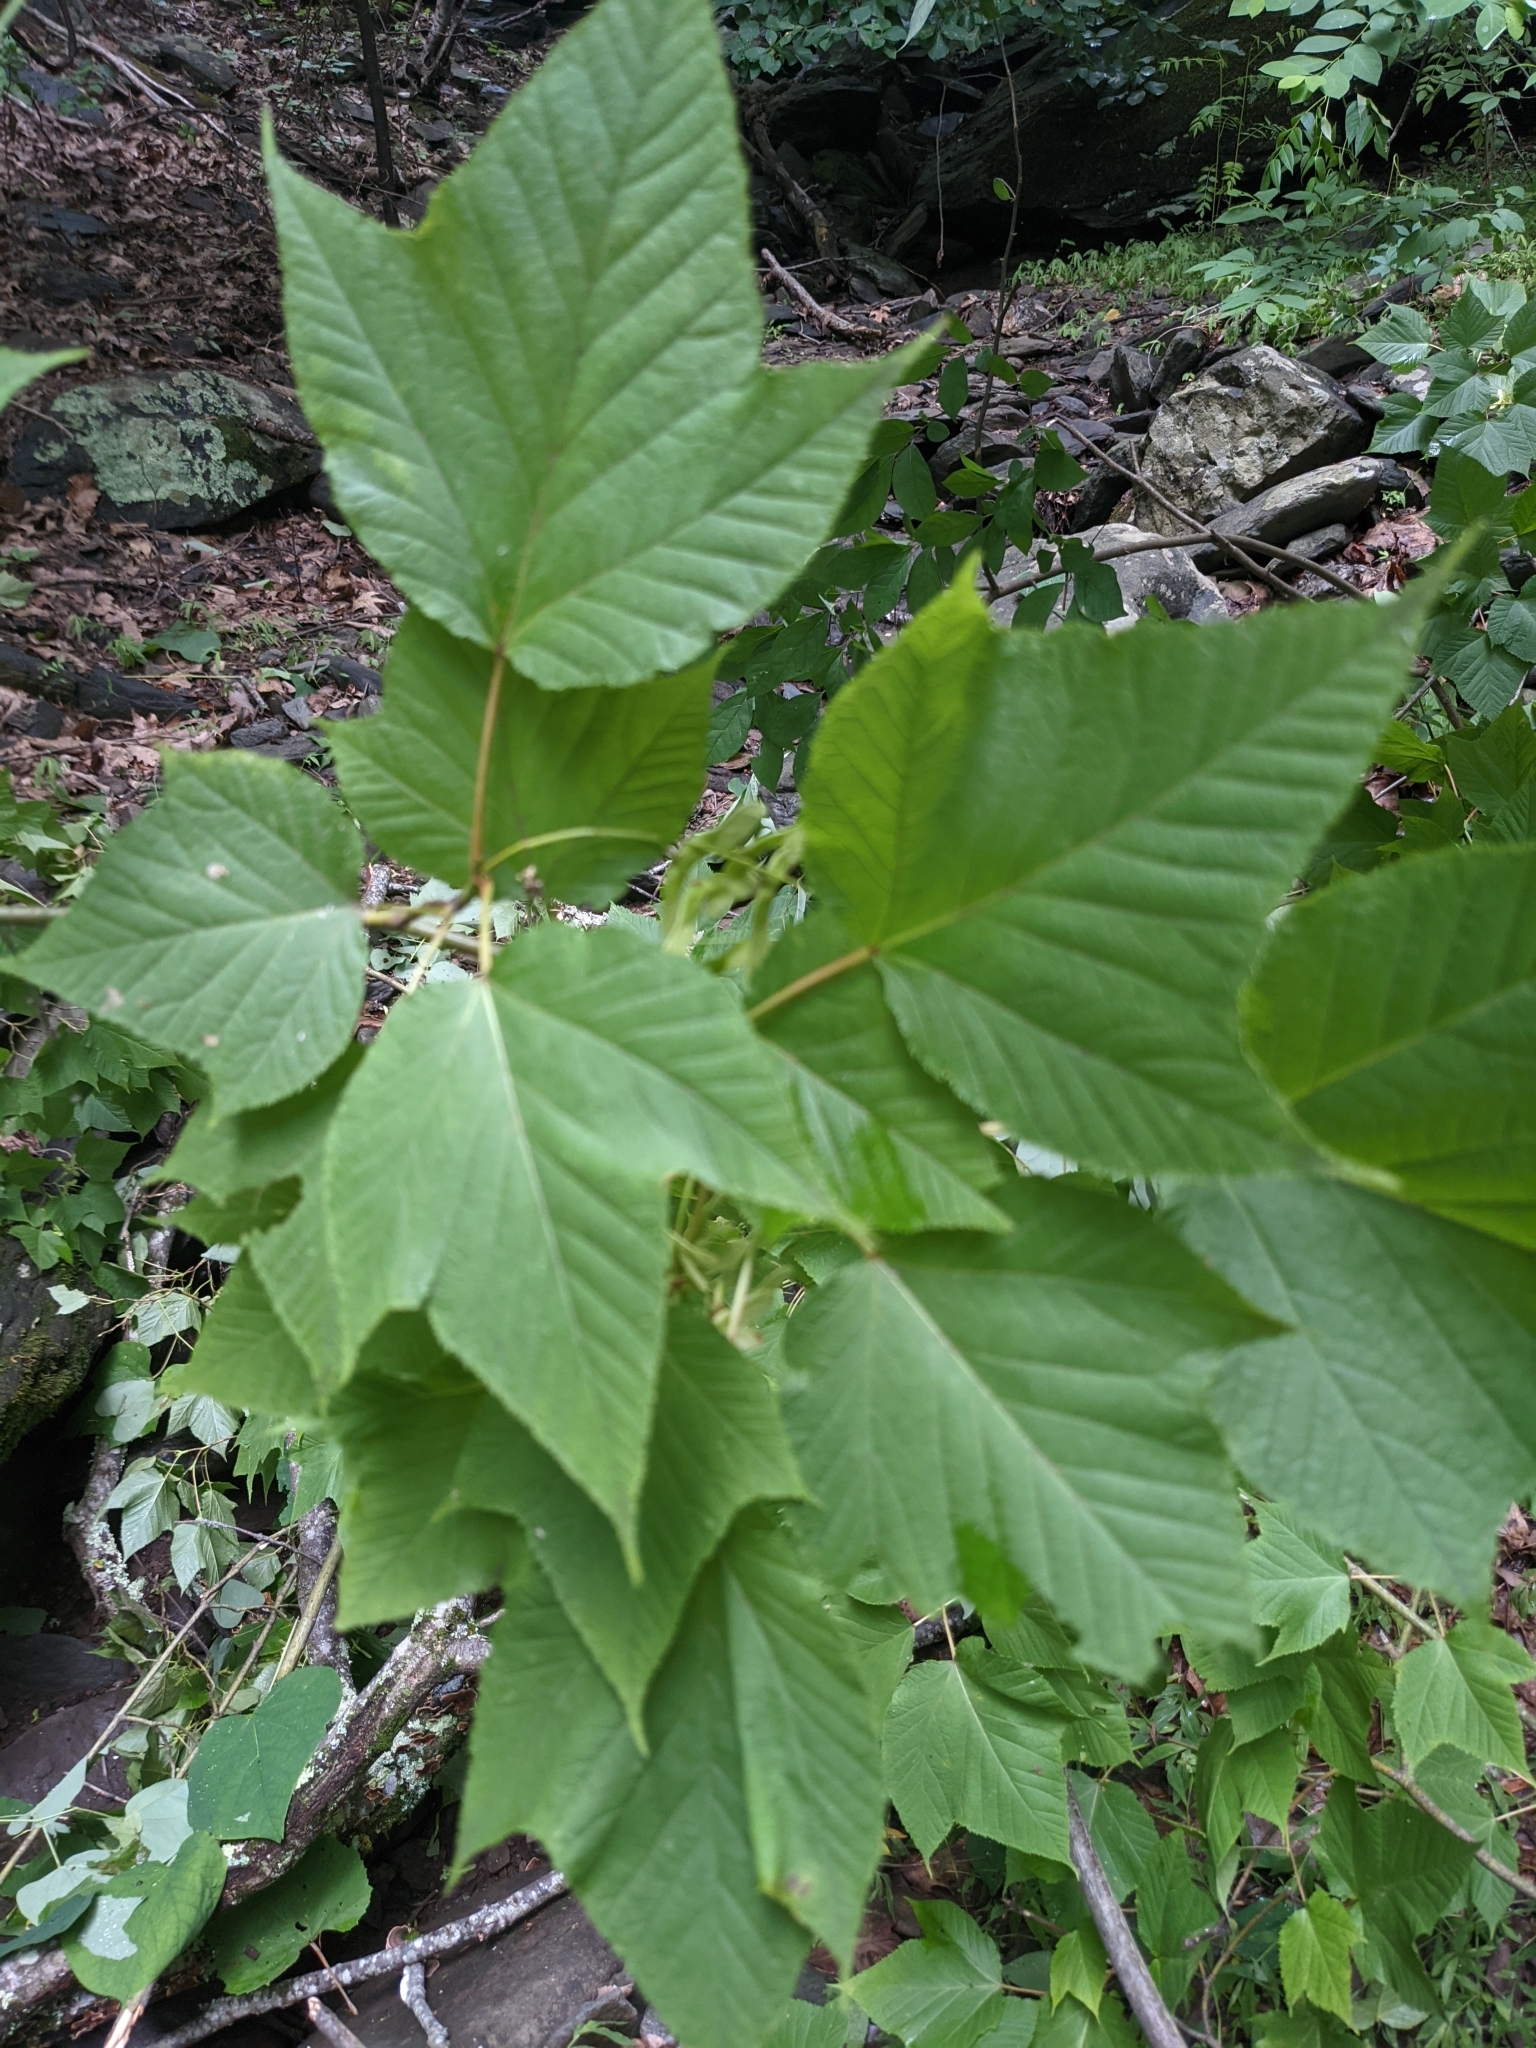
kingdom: Plantae
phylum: Tracheophyta
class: Magnoliopsida
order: Sapindales
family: Sapindaceae
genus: Acer
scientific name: Acer pensylvanicum
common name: Moosewood
